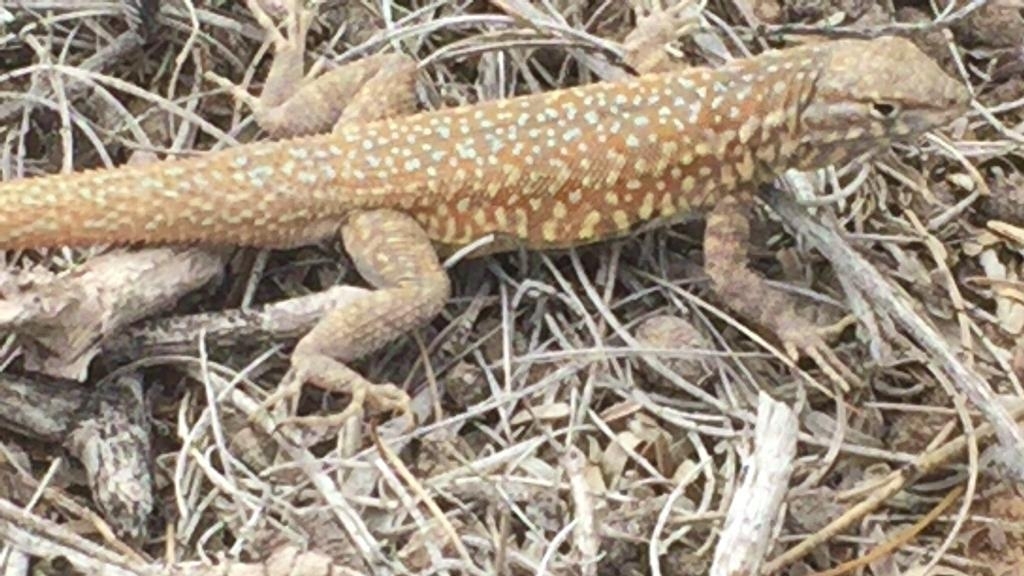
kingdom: Animalia
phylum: Chordata
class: Squamata
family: Phrynosomatidae
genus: Uta
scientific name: Uta stansburiana
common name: Side-blotched lizard
